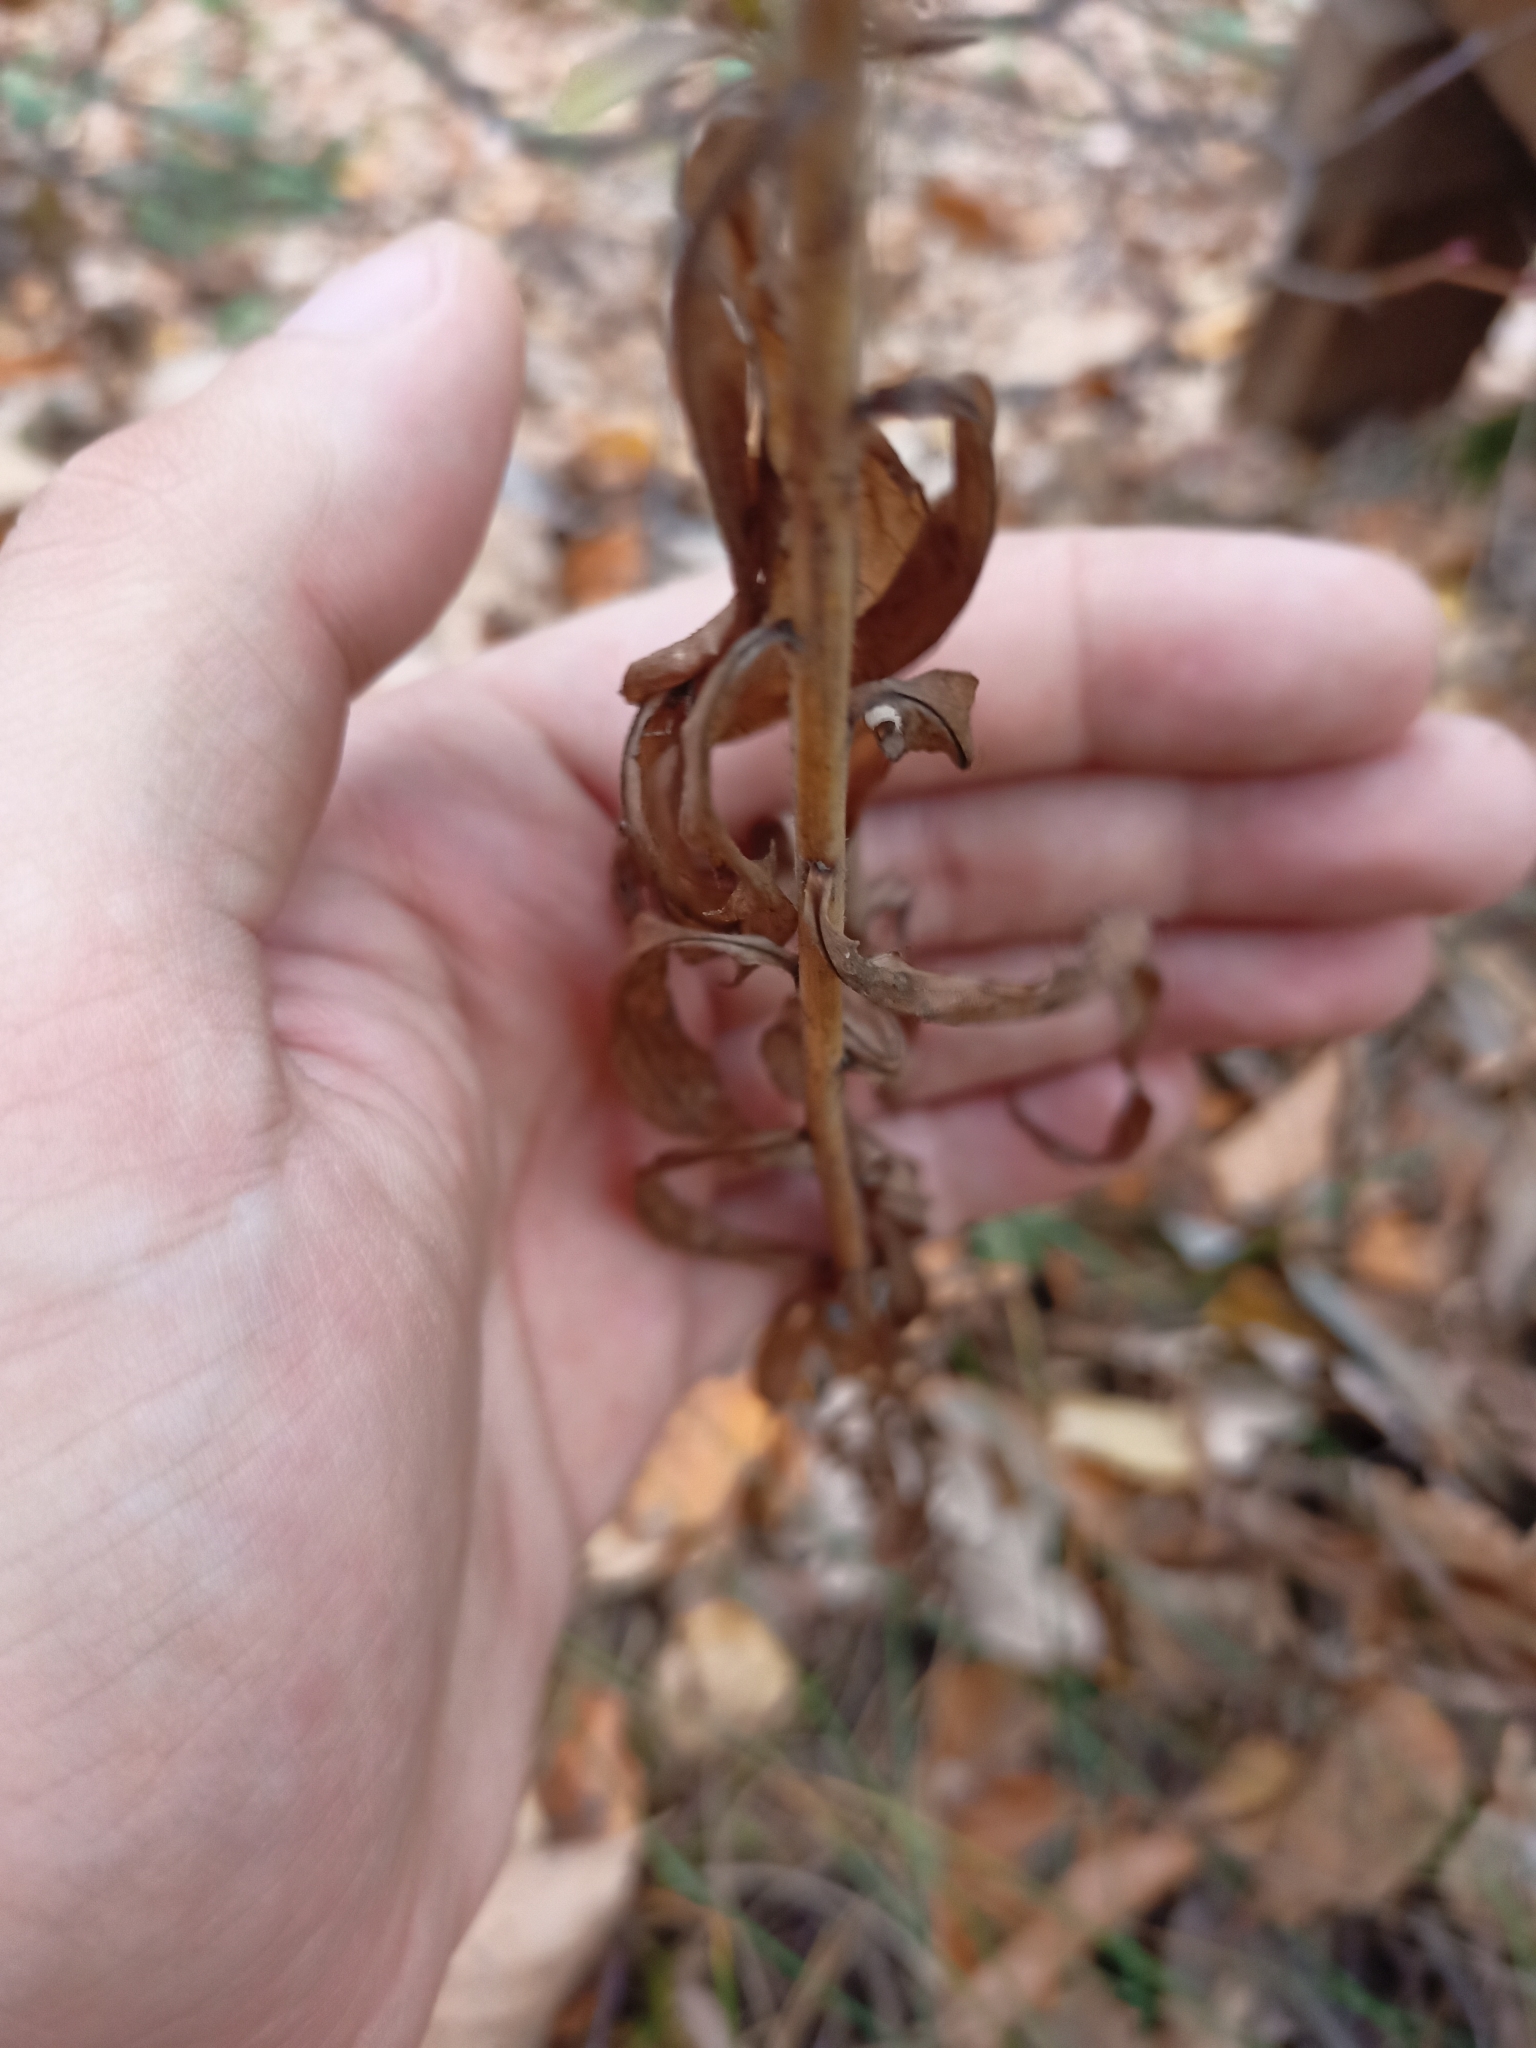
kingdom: Plantae
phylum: Tracheophyta
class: Magnoliopsida
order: Asterales
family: Asteraceae
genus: Hieracium
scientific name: Hieracium umbellatum
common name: Northern hawkweed
